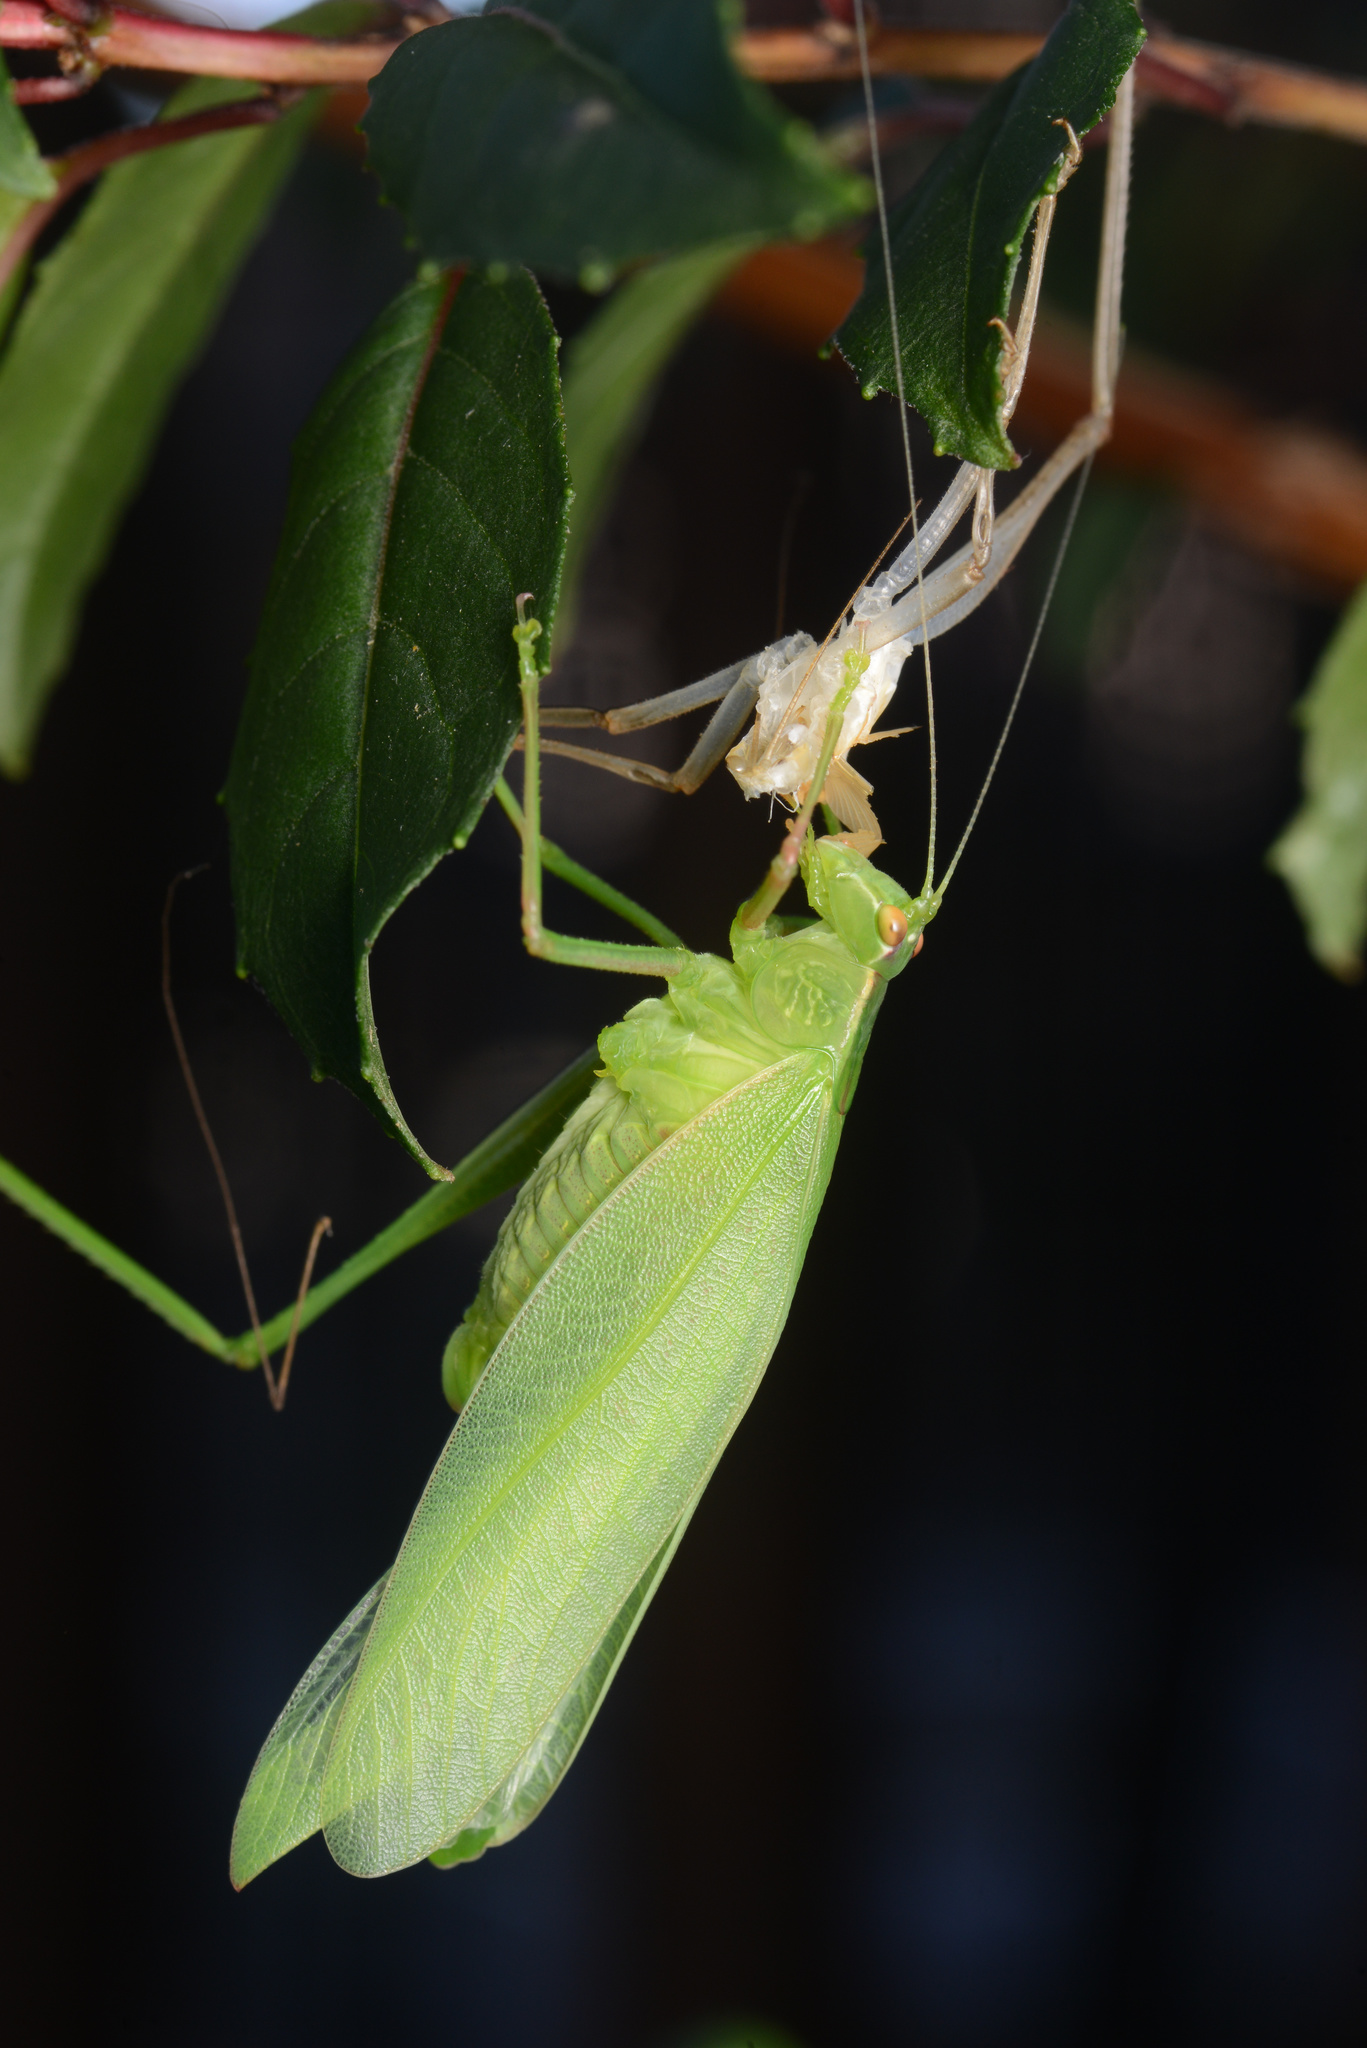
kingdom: Animalia
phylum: Arthropoda
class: Insecta
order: Orthoptera
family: Tettigoniidae
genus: Caedicia
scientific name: Caedicia simplex
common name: Common garden katydid
